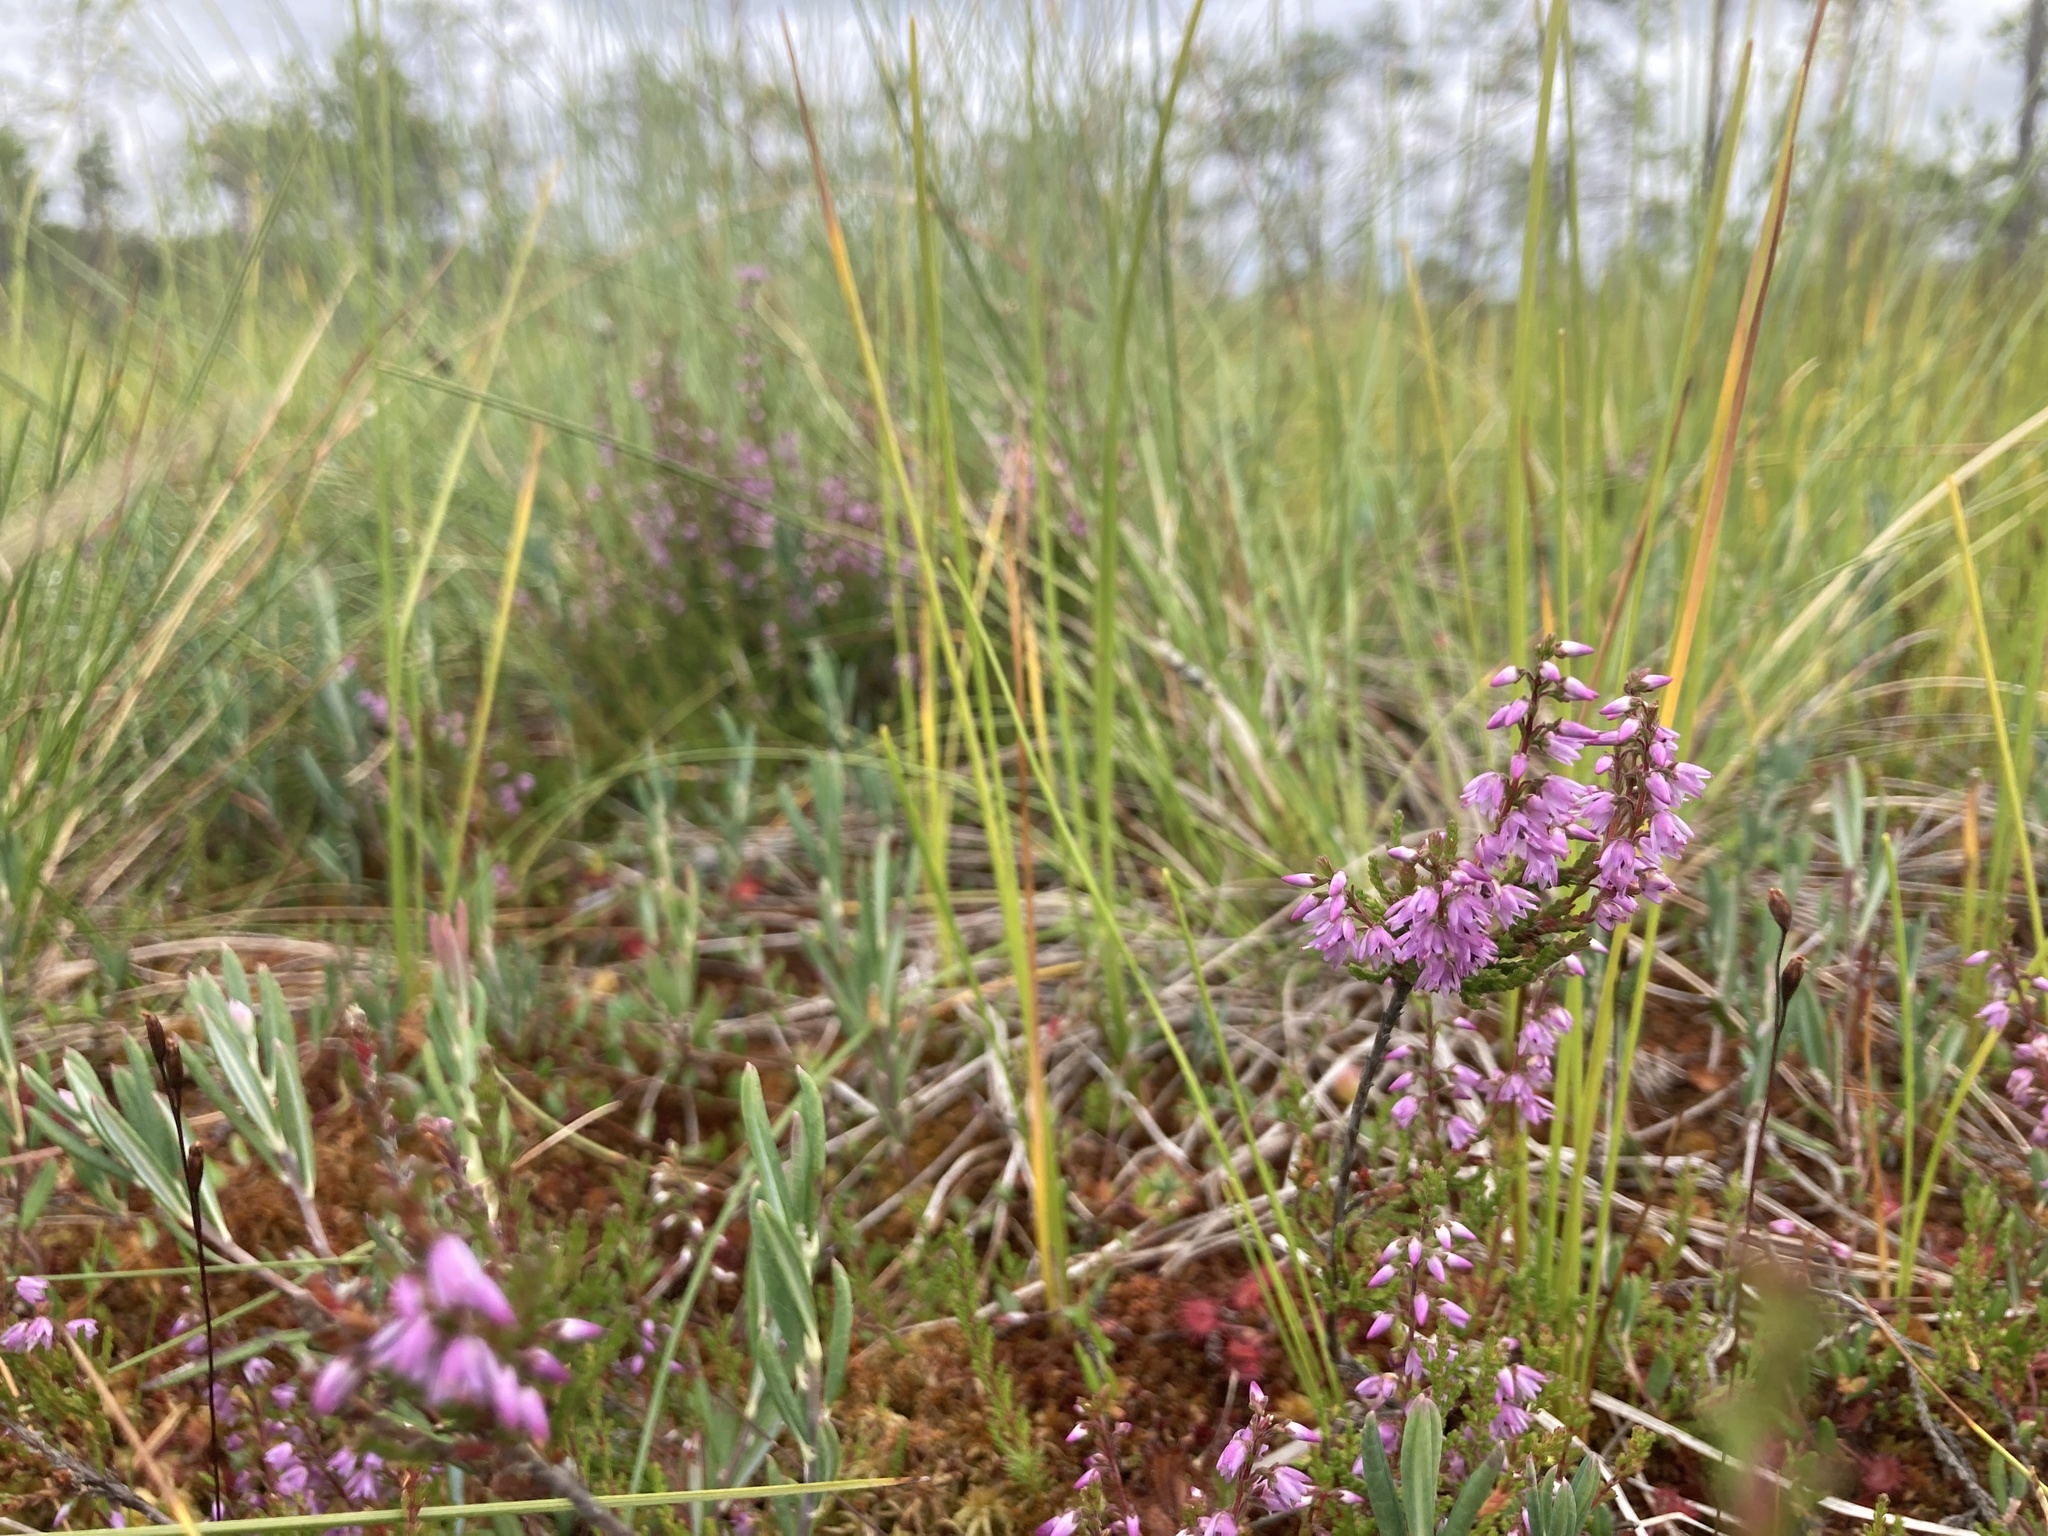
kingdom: Plantae
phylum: Tracheophyta
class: Magnoliopsida
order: Ericales
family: Ericaceae
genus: Calluna
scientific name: Calluna vulgaris
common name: Heather
